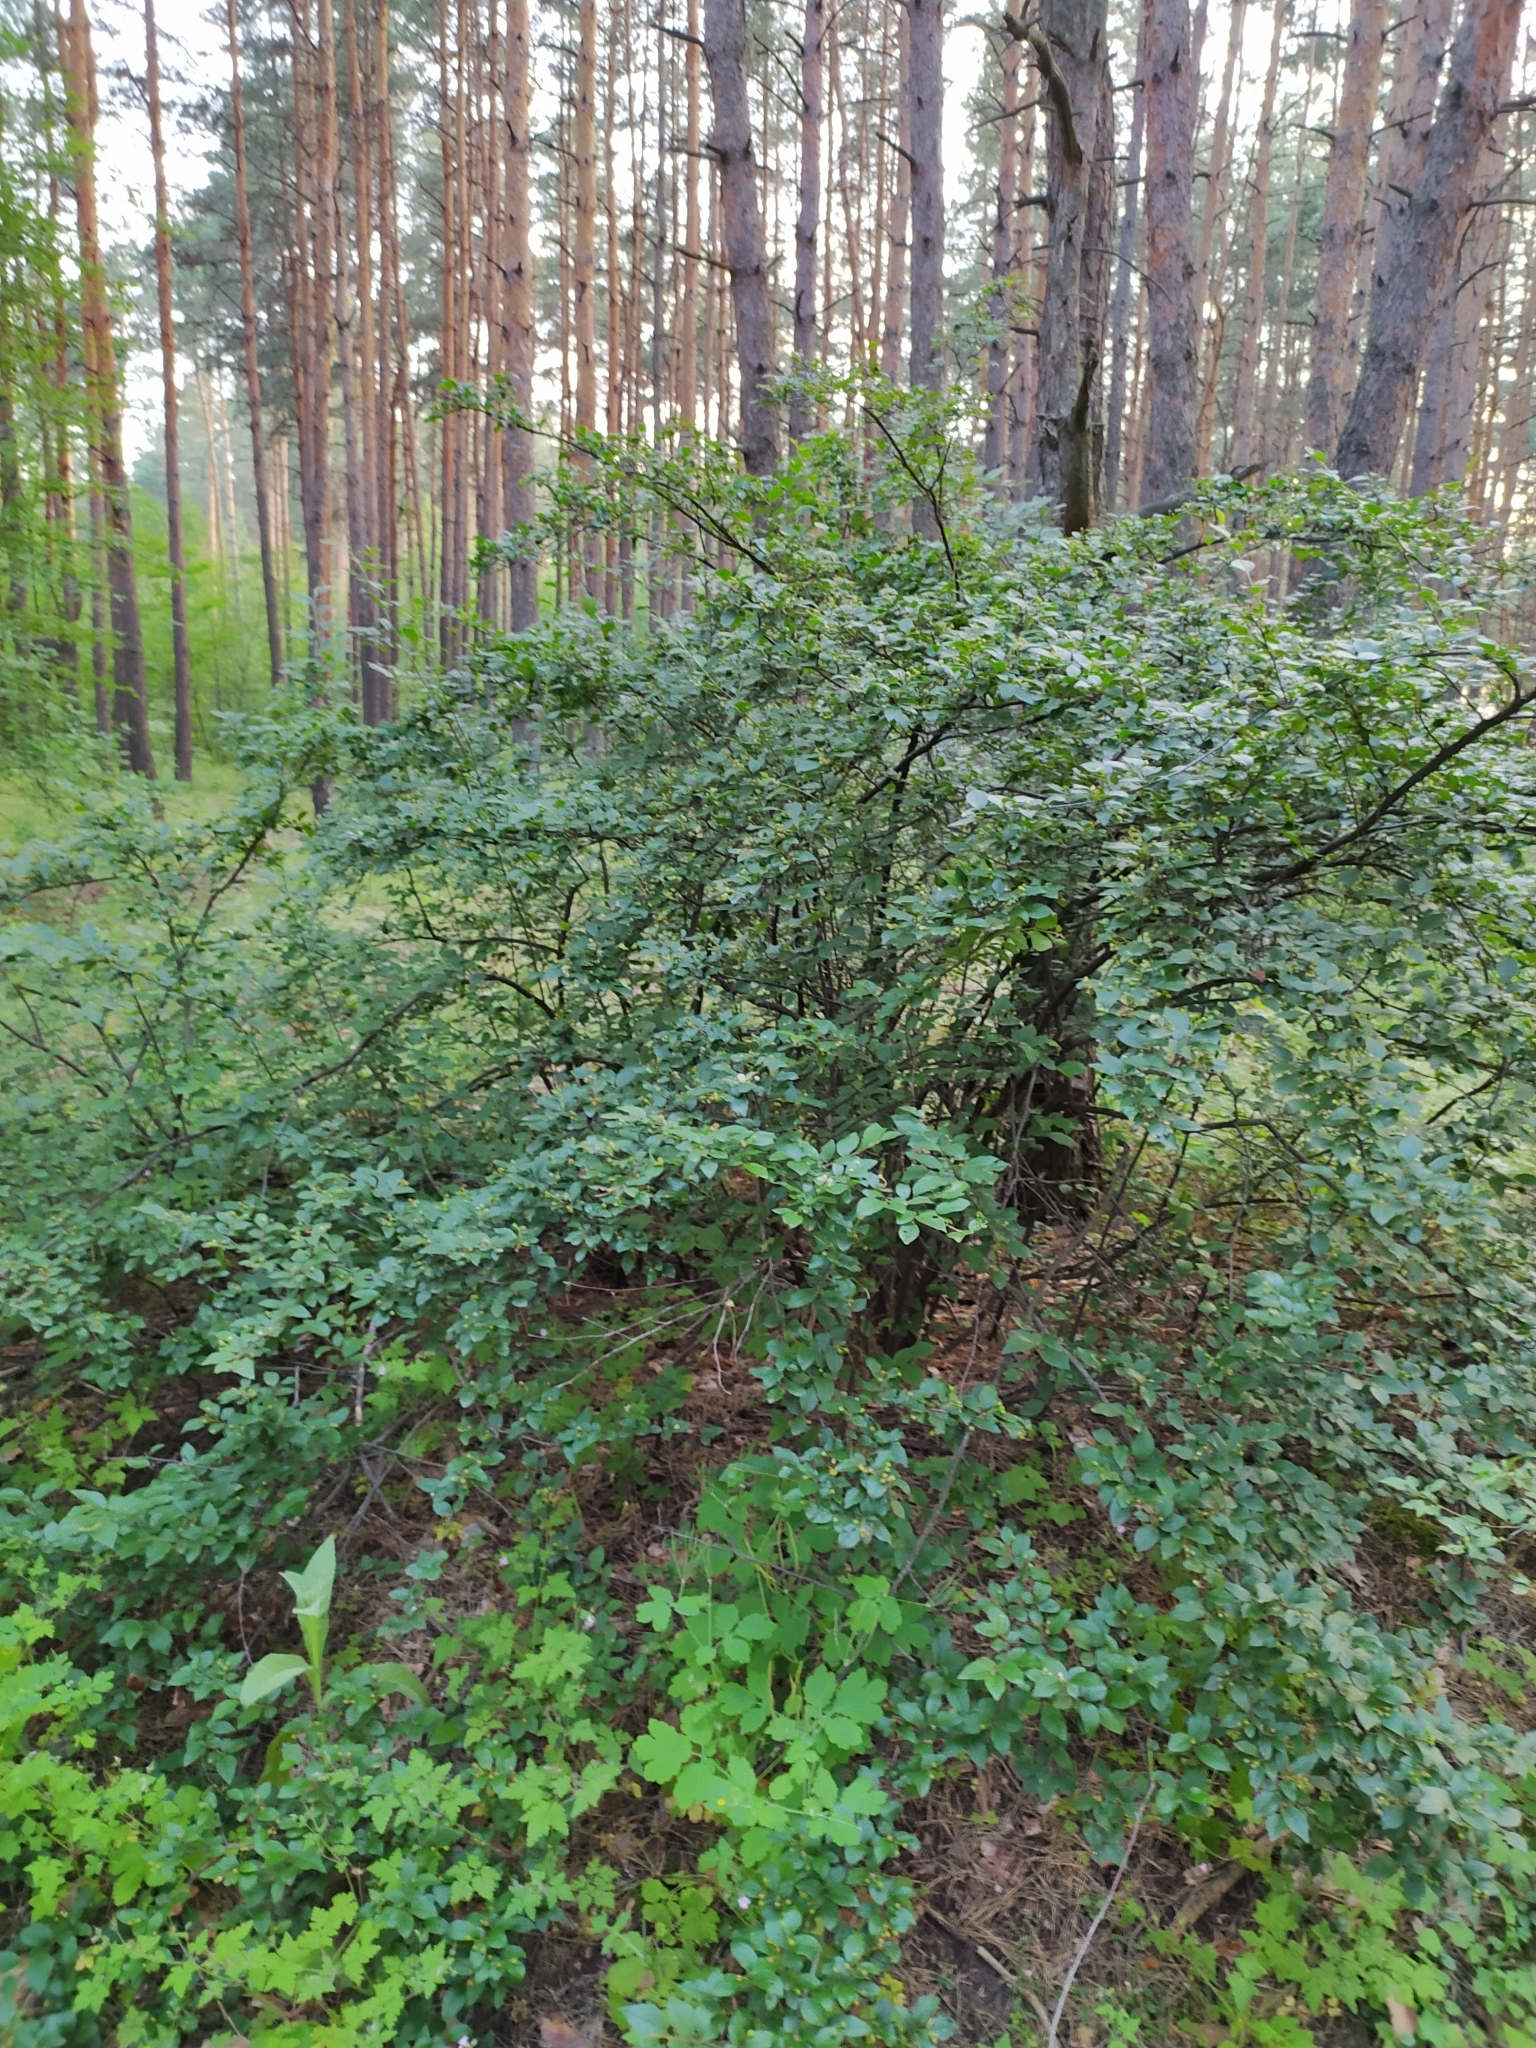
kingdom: Plantae
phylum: Tracheophyta
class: Magnoliopsida
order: Rosales
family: Rosaceae
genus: Cotoneaster
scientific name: Cotoneaster acutifolius
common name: Peking cotoneaster
